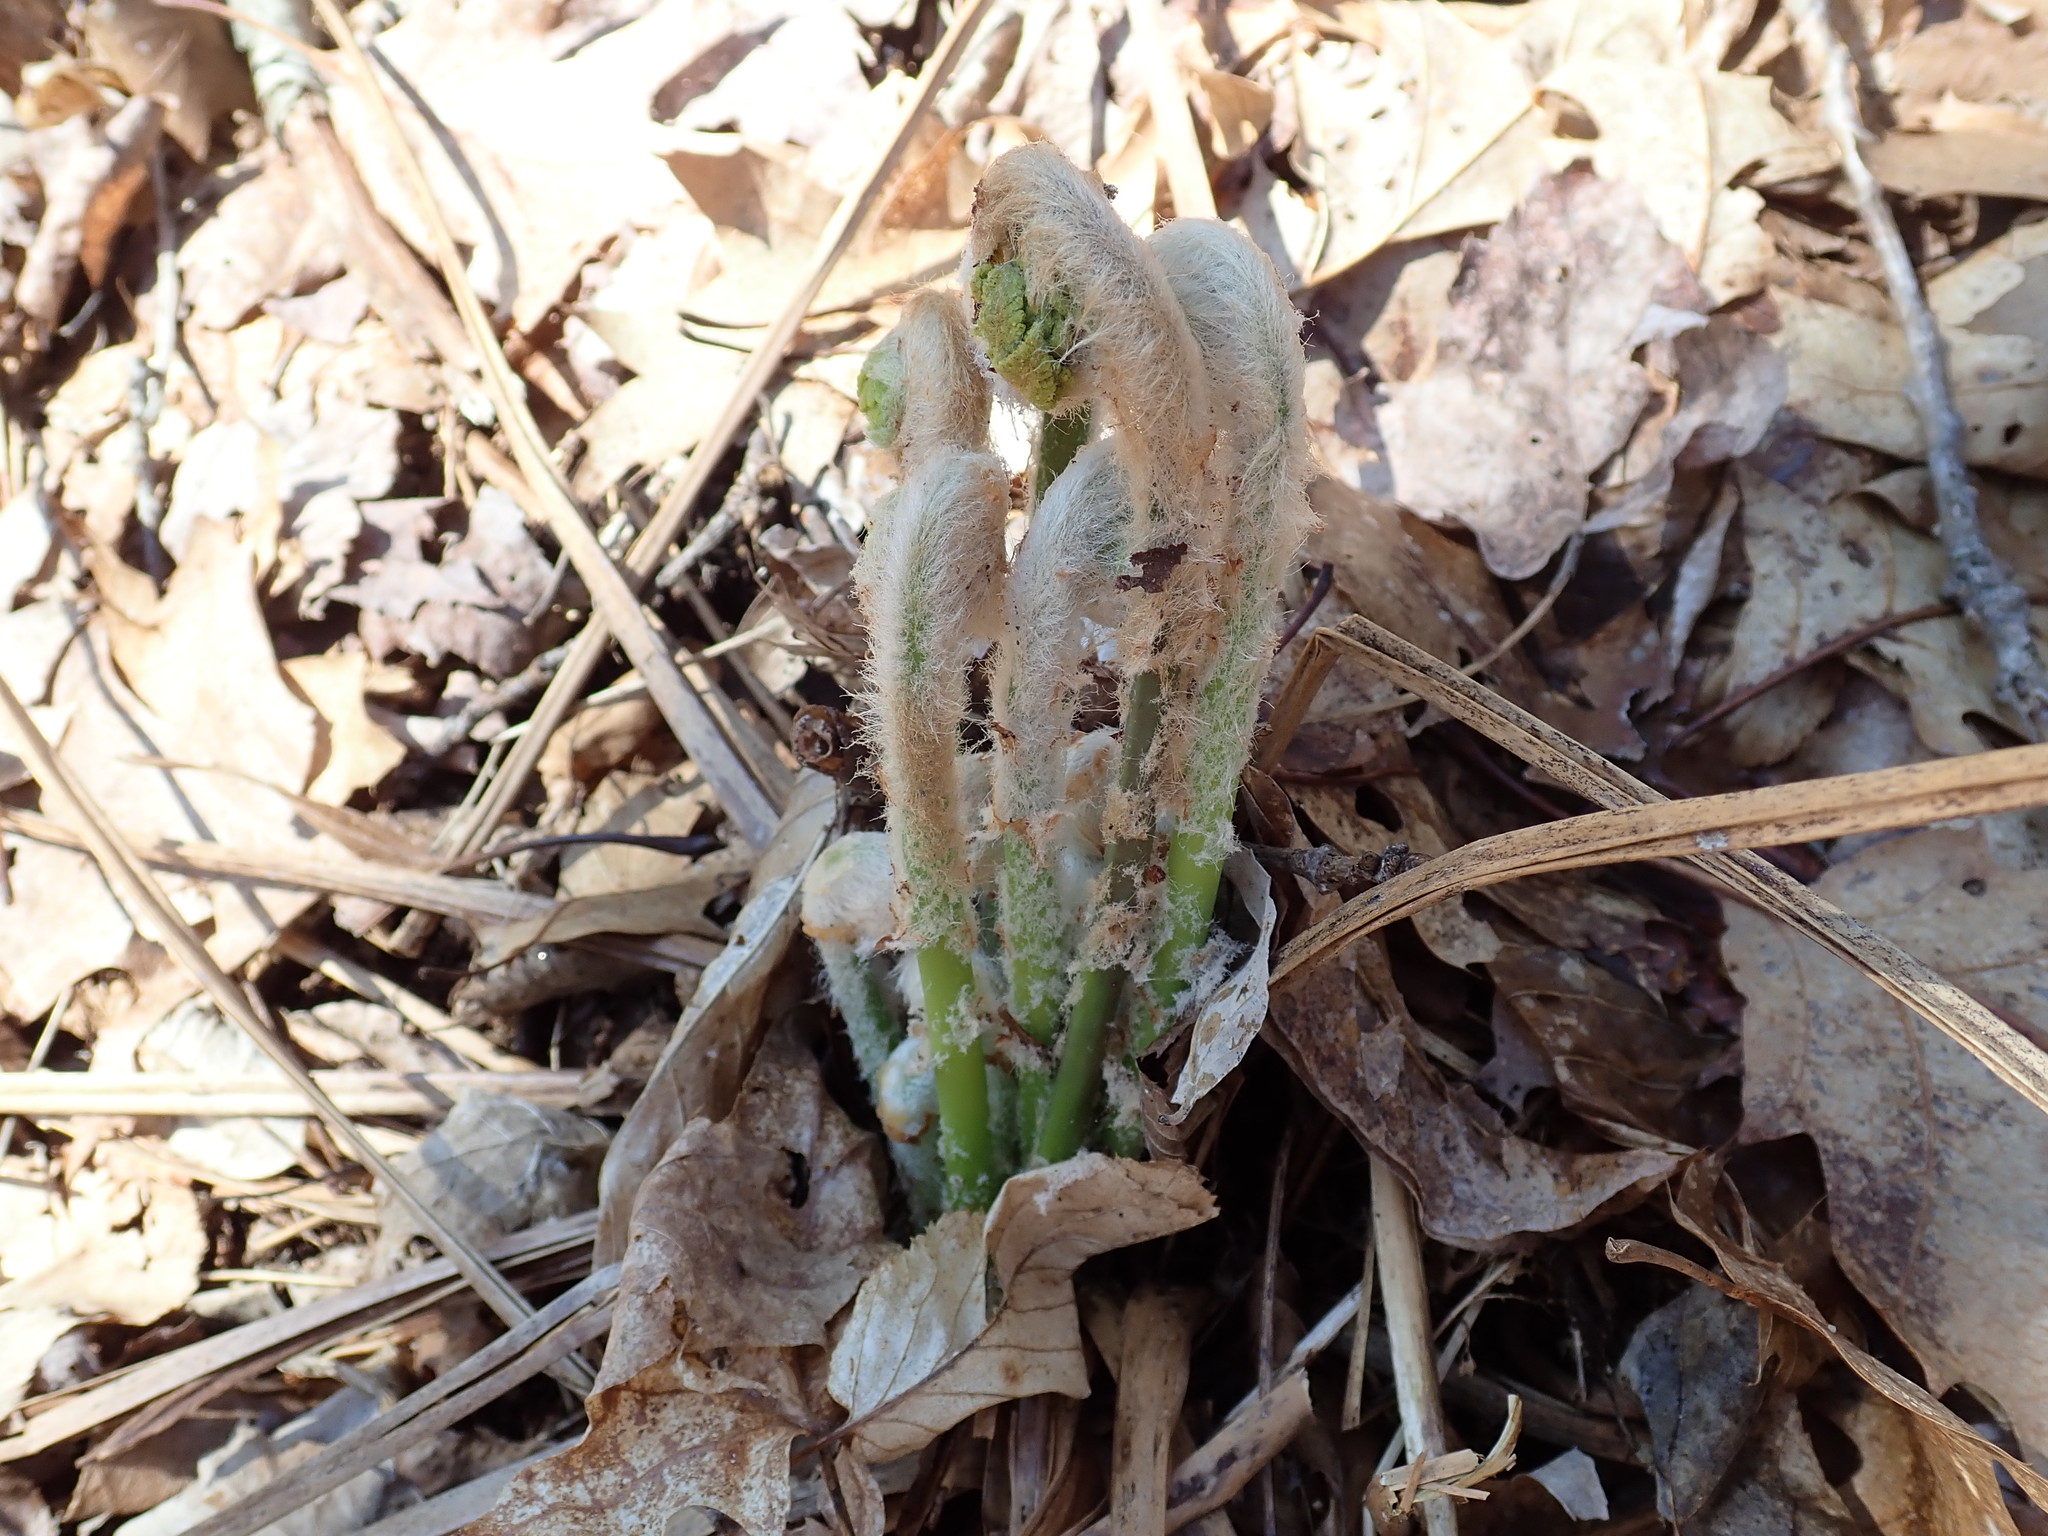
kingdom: Plantae
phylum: Tracheophyta
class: Polypodiopsida
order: Osmundales
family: Osmundaceae
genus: Claytosmunda
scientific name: Claytosmunda claytoniana
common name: Clayton's fern
